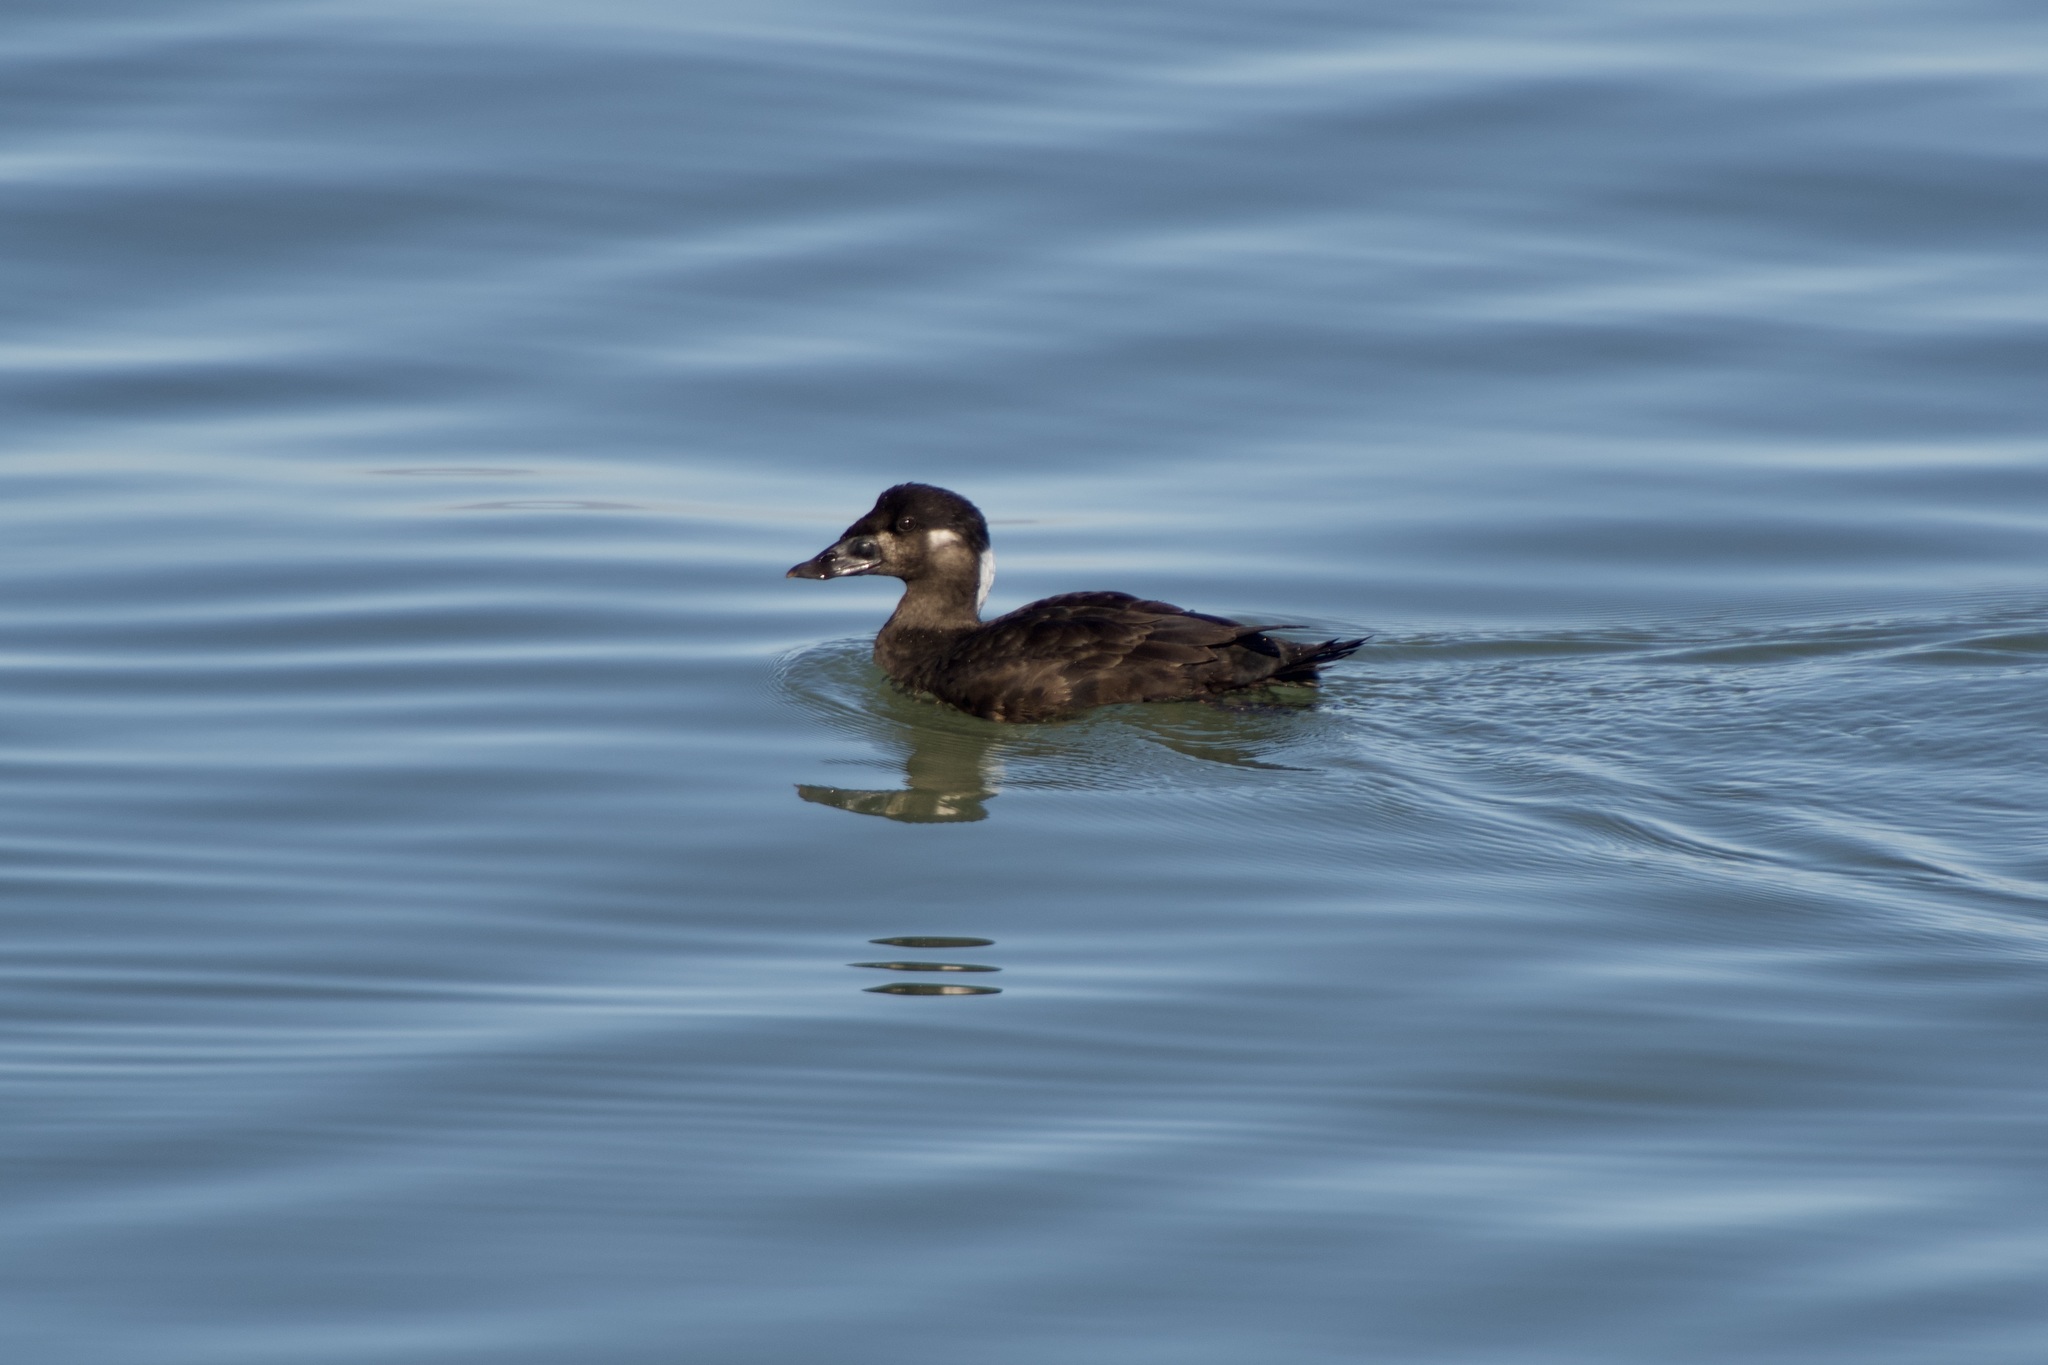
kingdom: Animalia
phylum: Chordata
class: Aves
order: Anseriformes
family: Anatidae
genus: Melanitta
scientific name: Melanitta perspicillata
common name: Surf scoter
